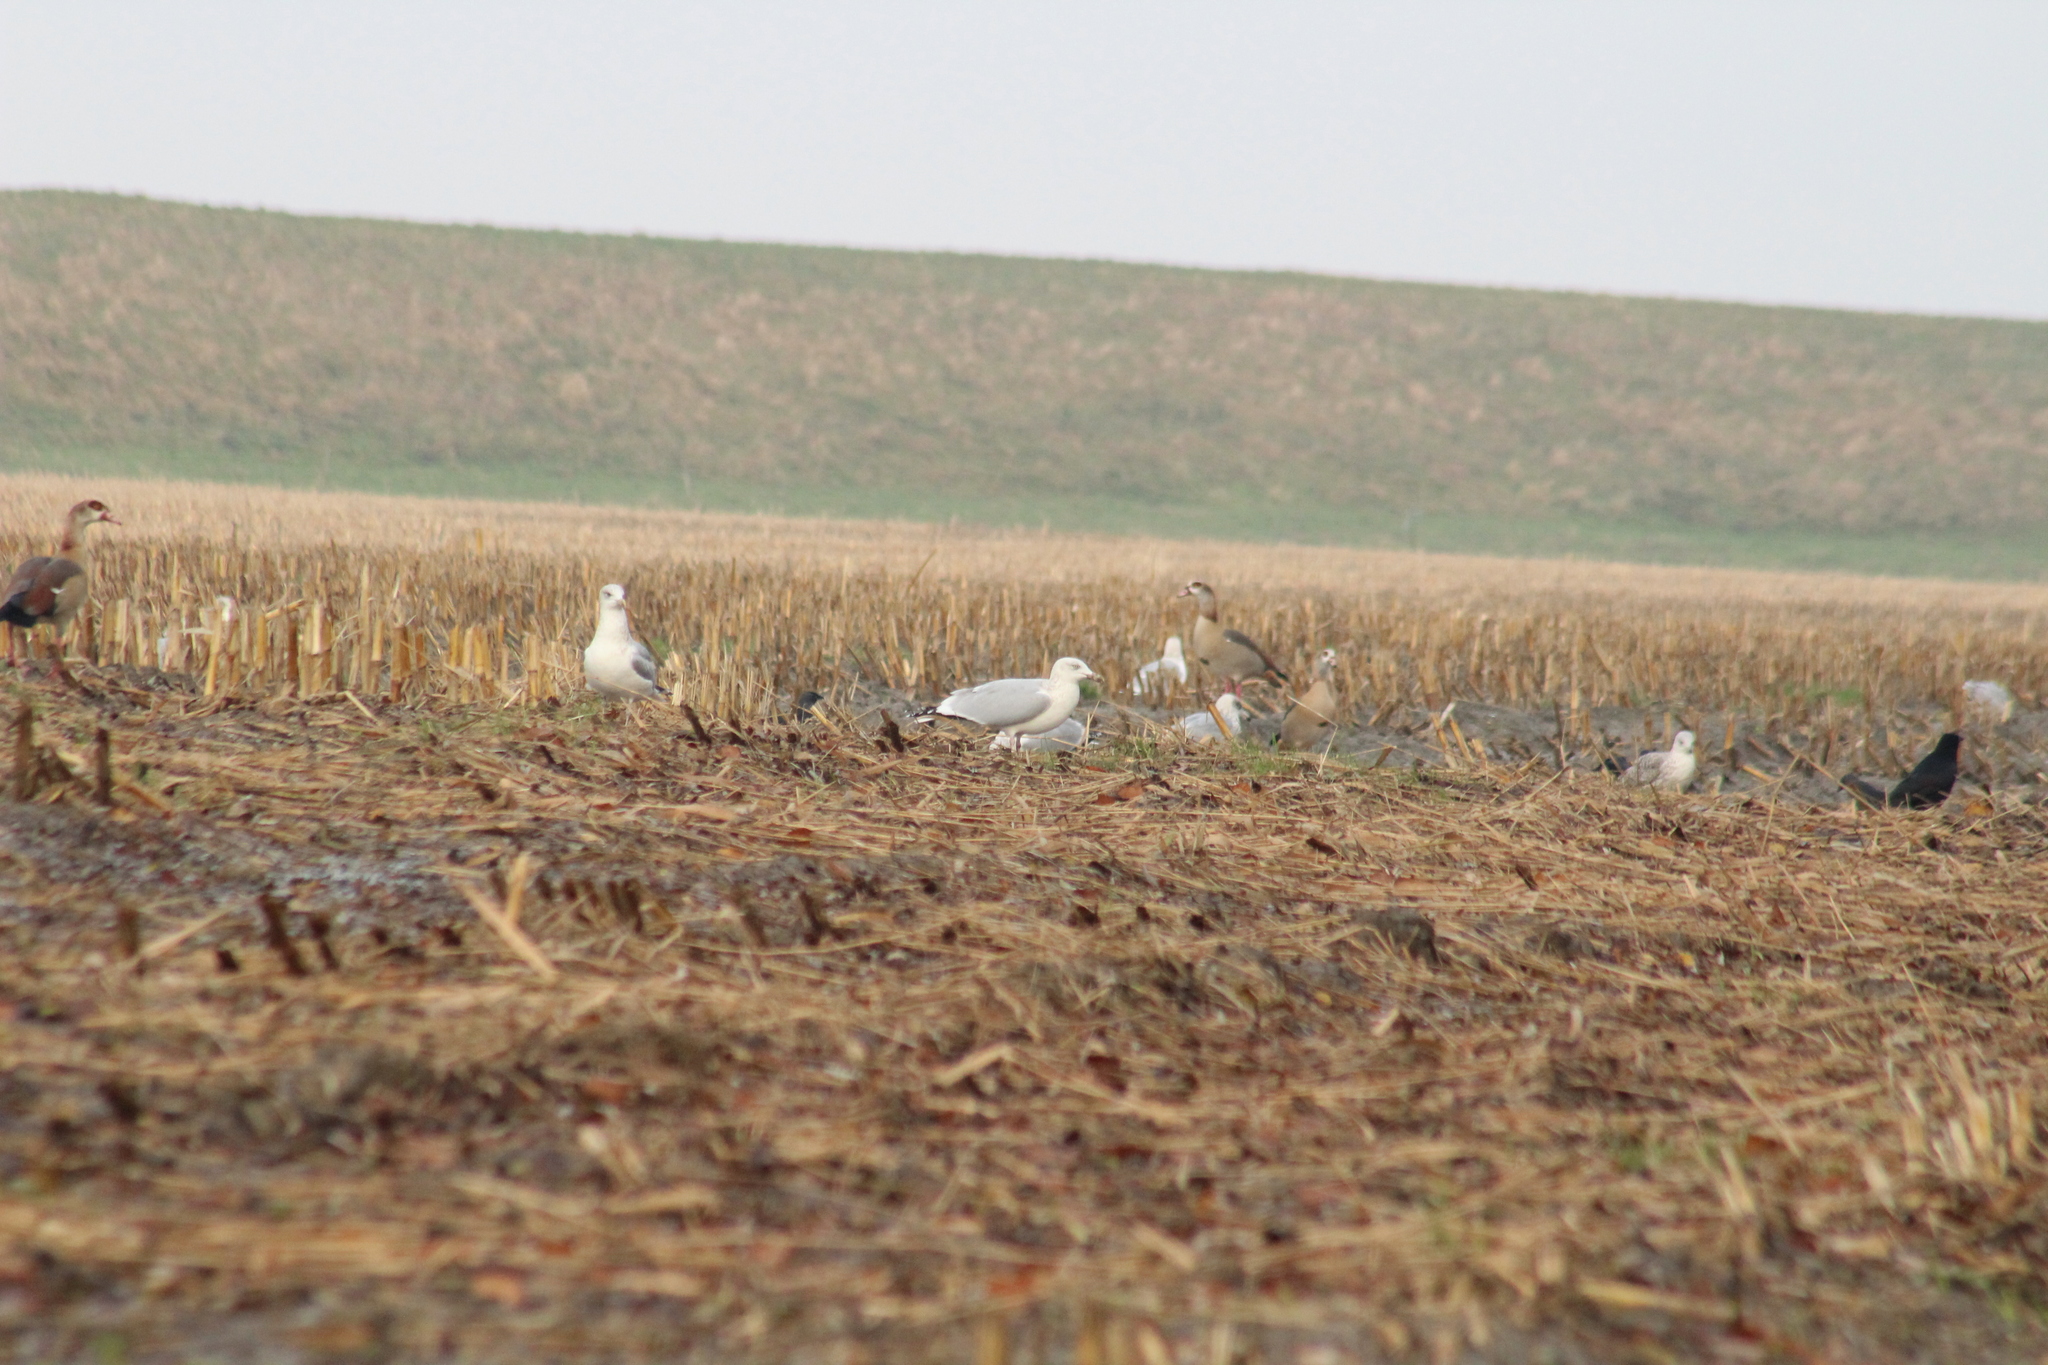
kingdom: Animalia
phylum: Chordata
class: Aves
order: Charadriiformes
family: Laridae
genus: Larus
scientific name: Larus argentatus
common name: Herring gull
